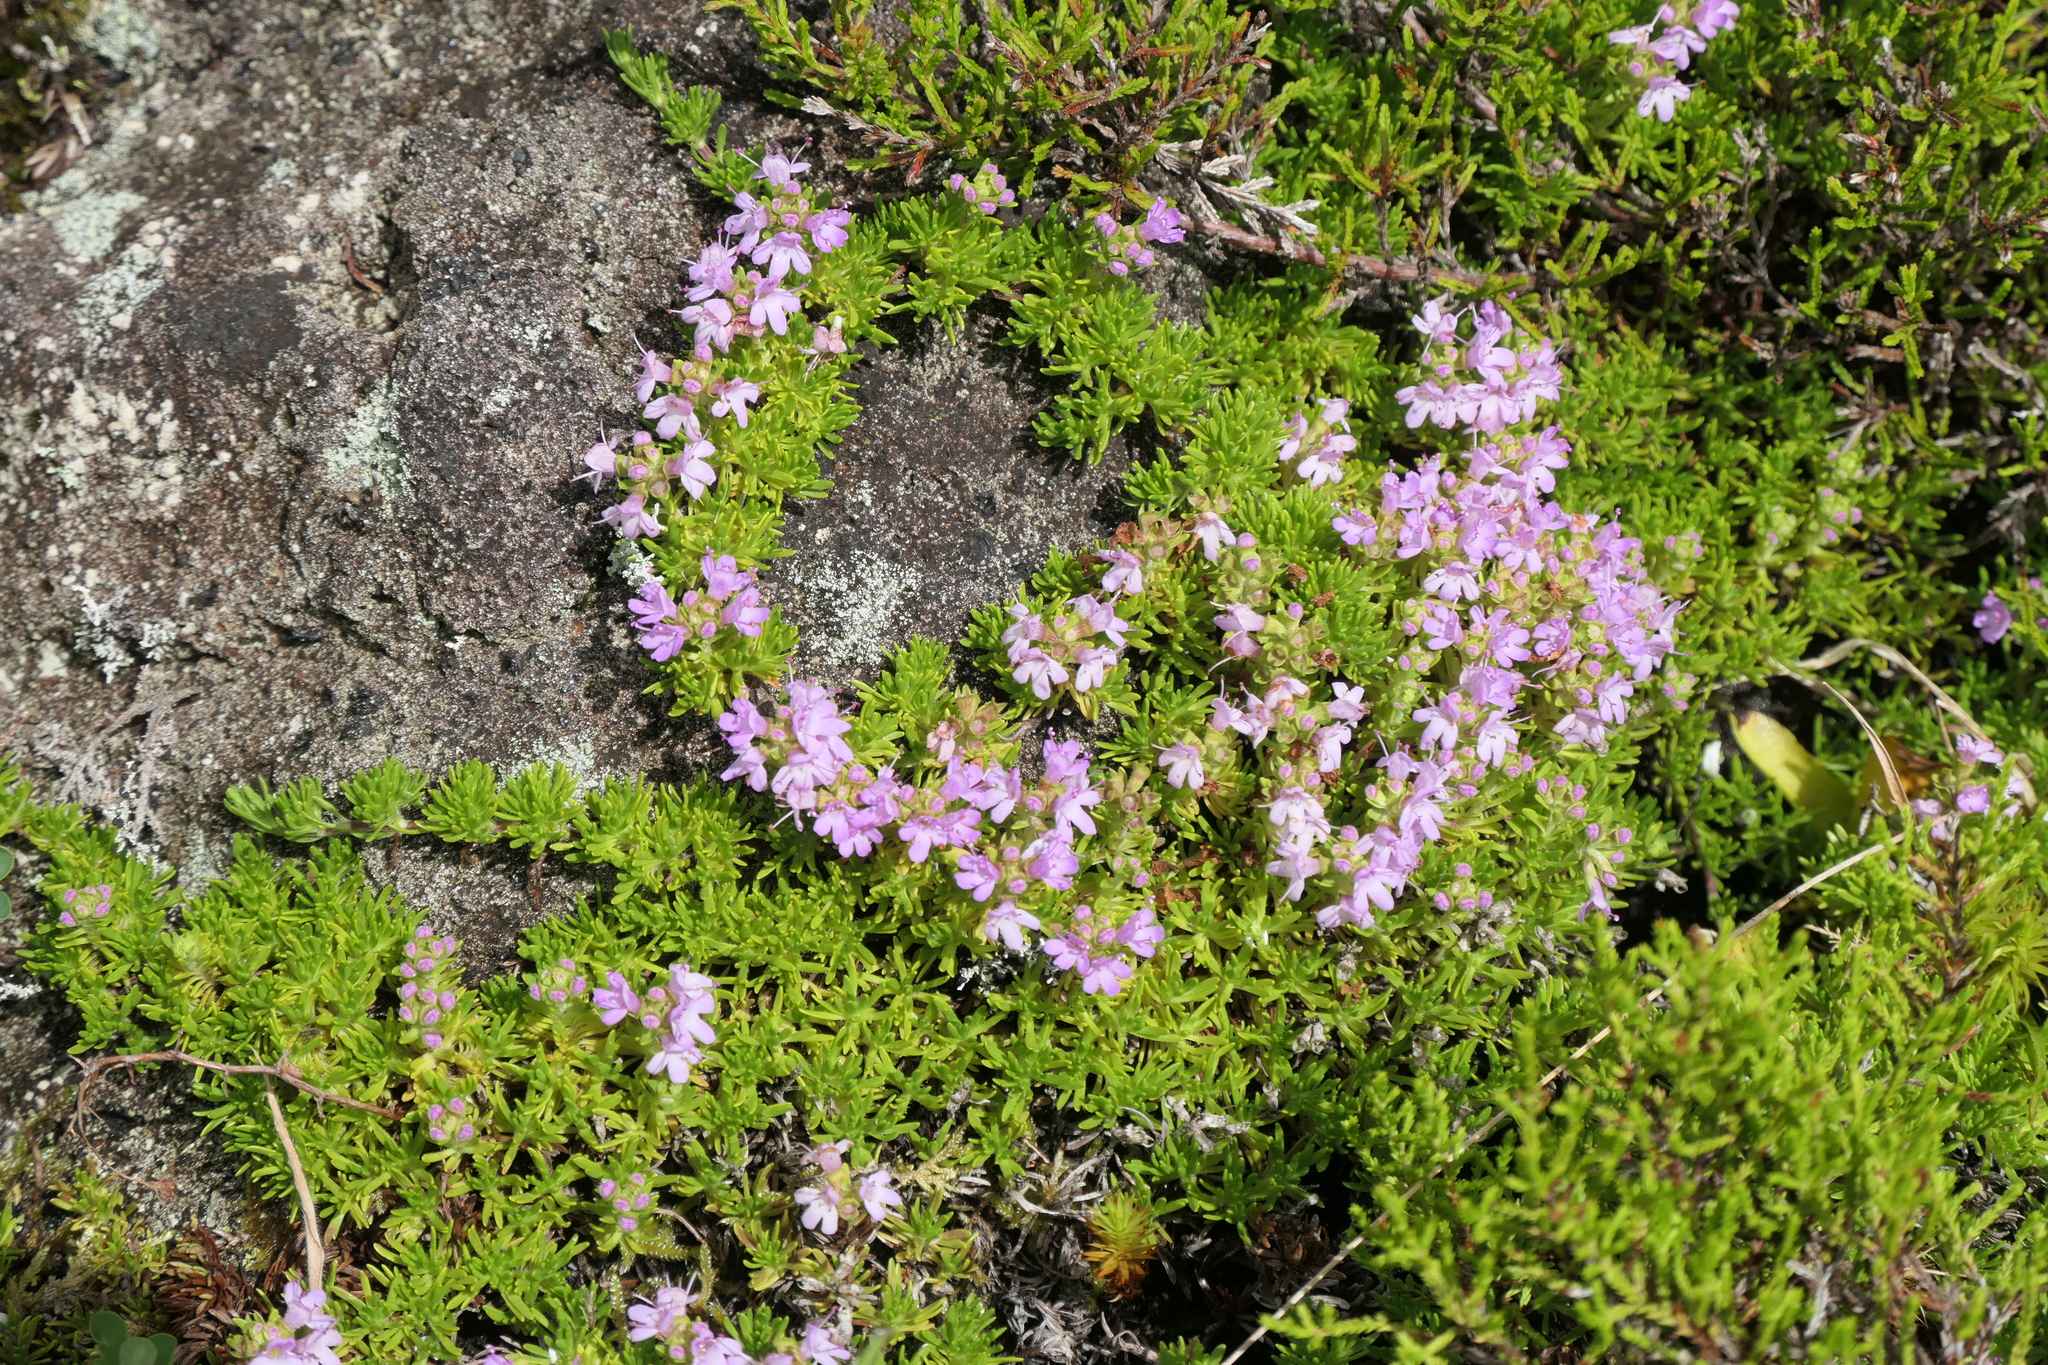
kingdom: Plantae
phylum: Tracheophyta
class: Magnoliopsida
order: Lamiales
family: Lamiaceae
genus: Thymus
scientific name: Thymus caespititius
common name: Azores thyme
